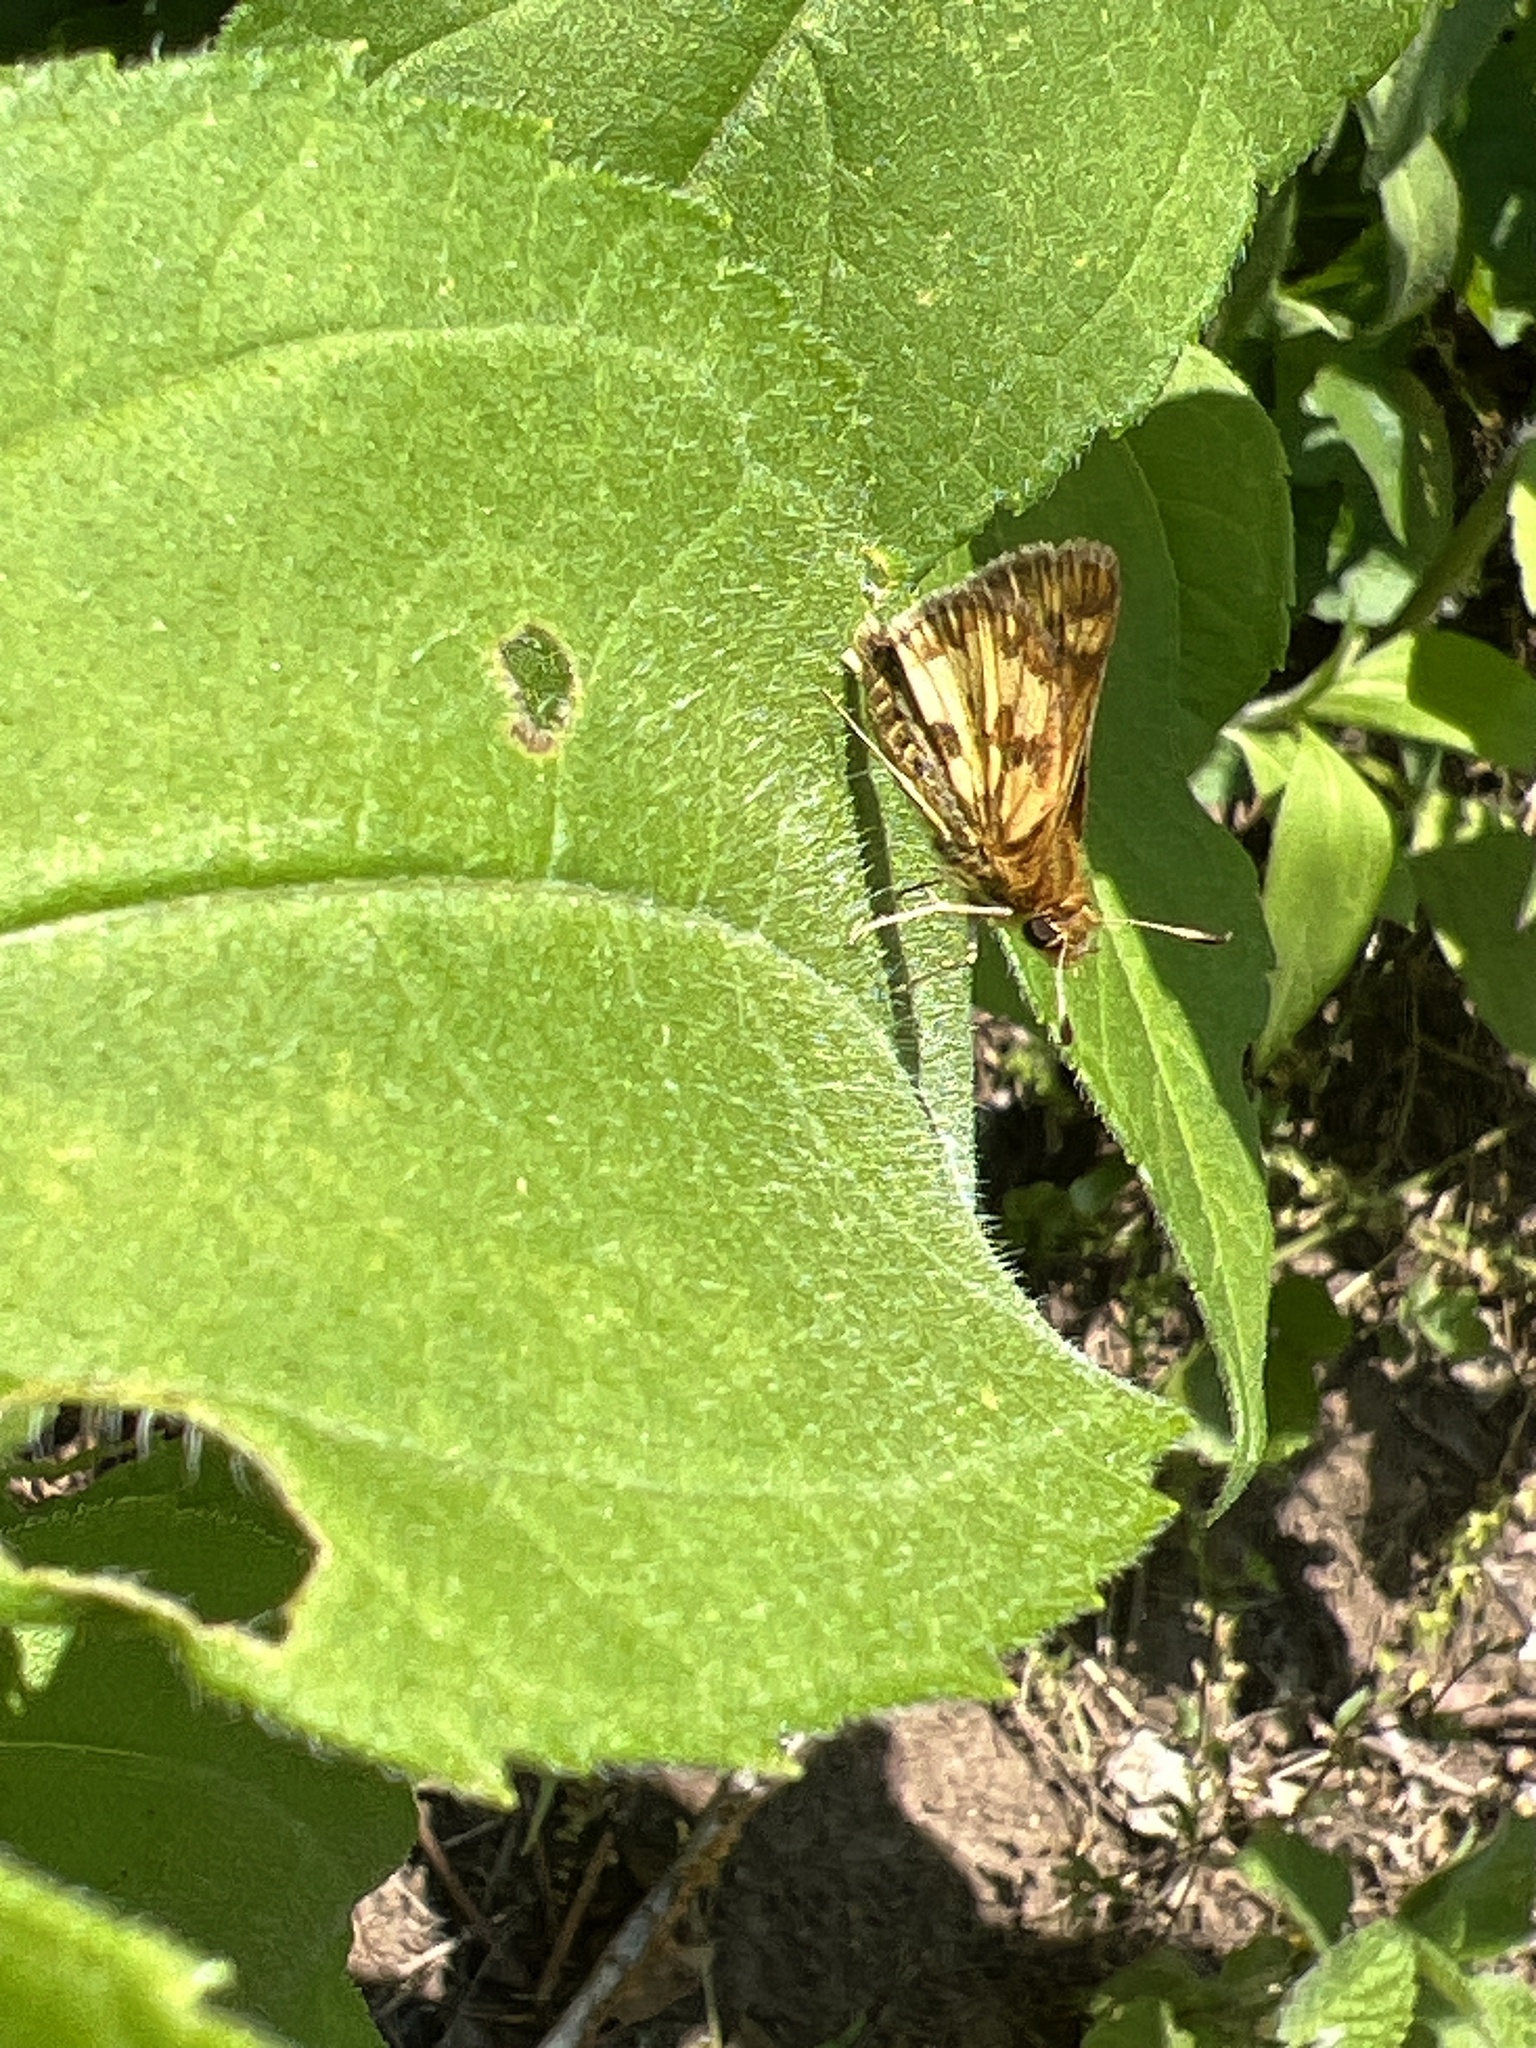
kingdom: Animalia
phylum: Arthropoda
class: Insecta
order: Lepidoptera
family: Hesperiidae
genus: Polites
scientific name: Polites coras
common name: Peck's skipper
